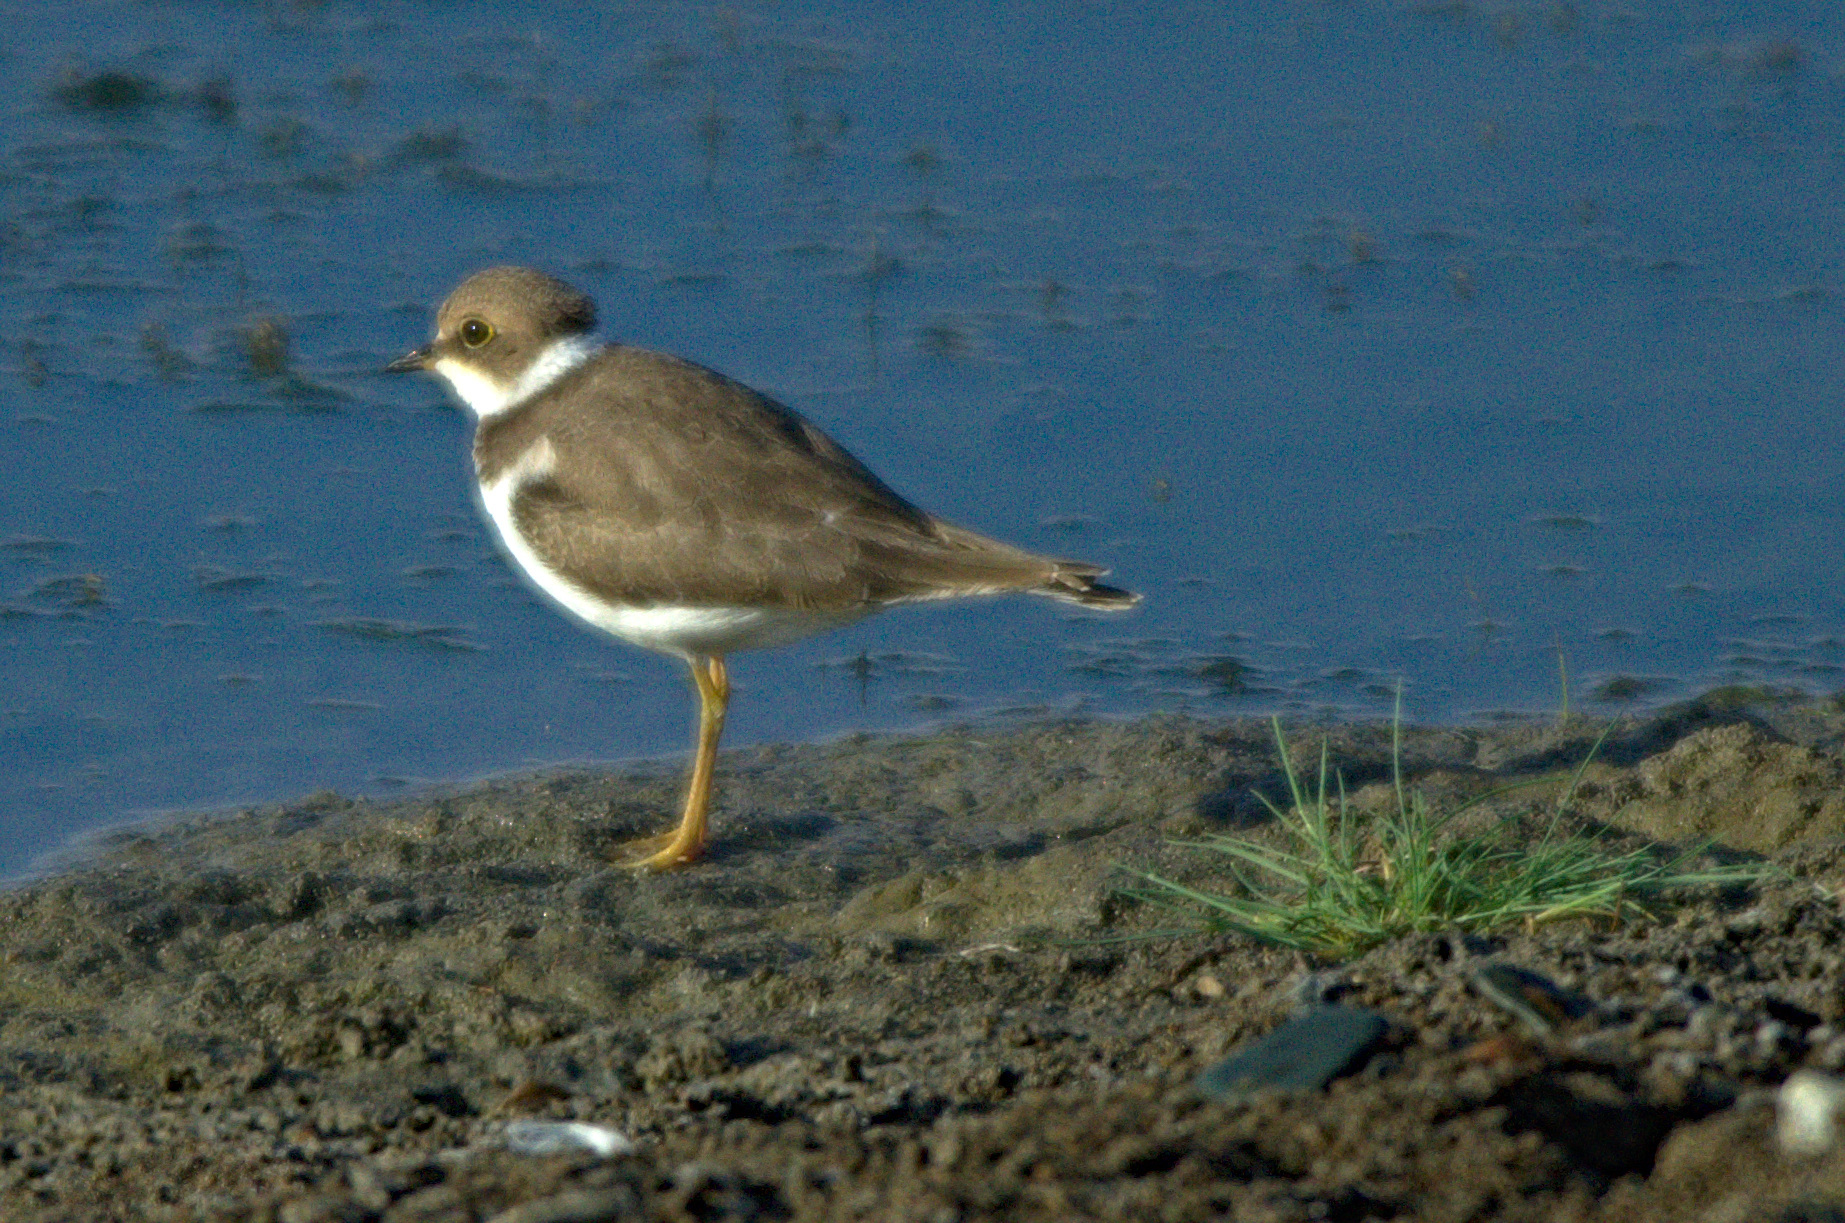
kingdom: Animalia
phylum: Chordata
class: Aves
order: Charadriiformes
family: Charadriidae
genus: Charadrius
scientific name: Charadrius dubius
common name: Little ringed plover
